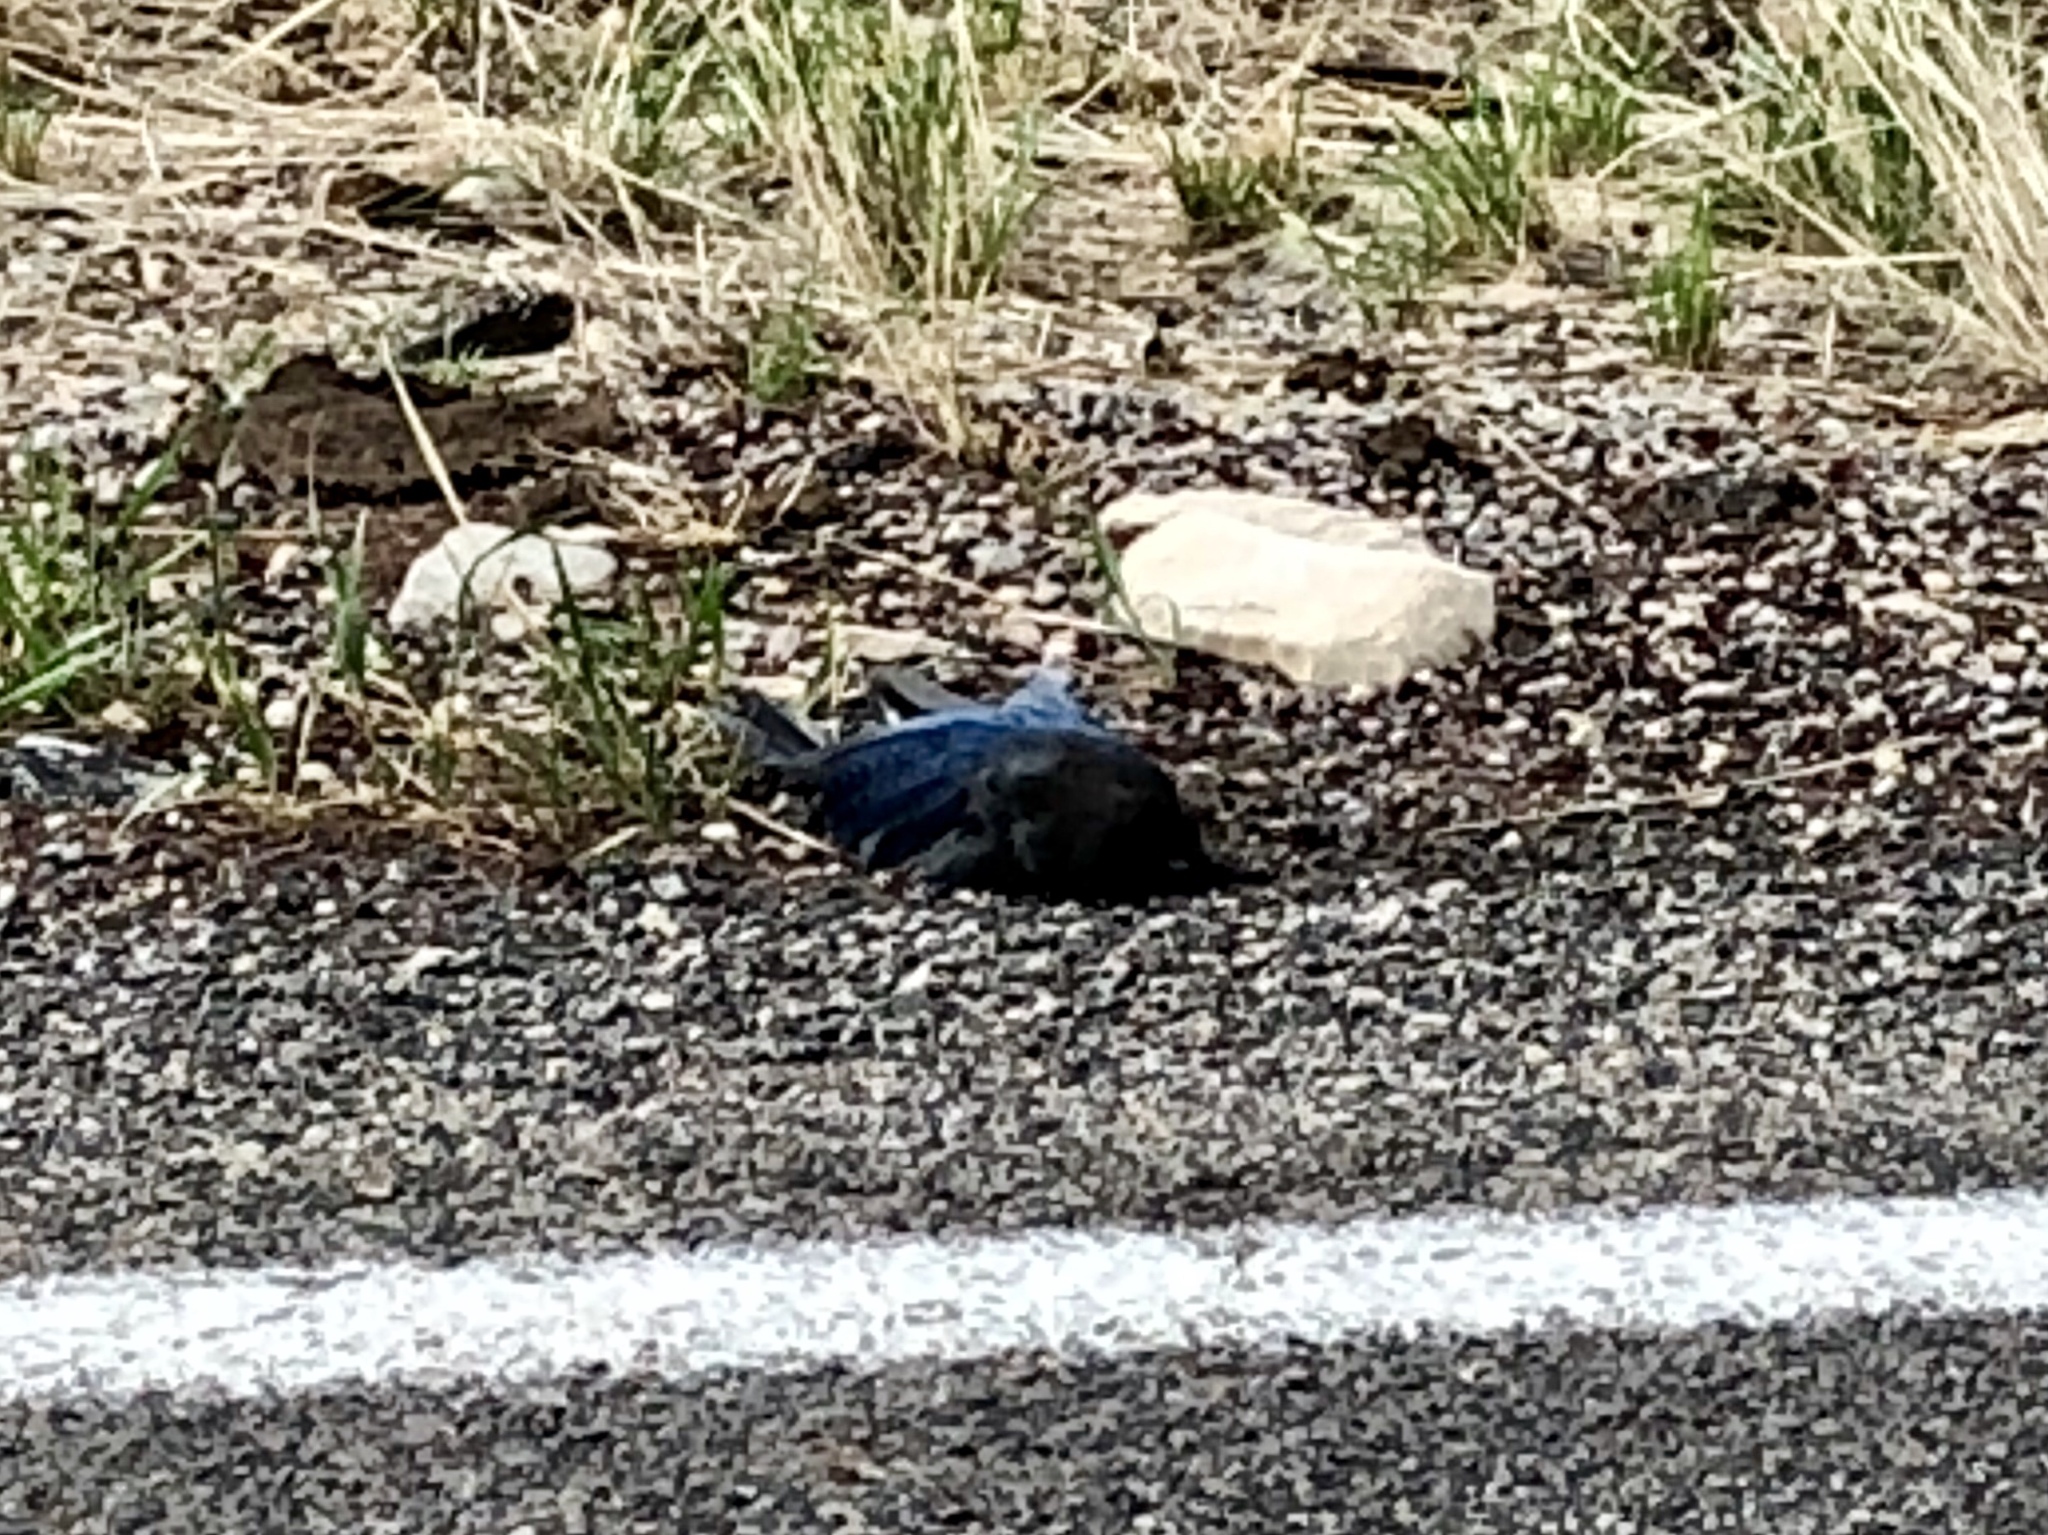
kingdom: Animalia
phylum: Chordata
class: Aves
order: Passeriformes
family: Corvidae
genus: Cyanocitta
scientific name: Cyanocitta stelleri
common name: Steller's jay
